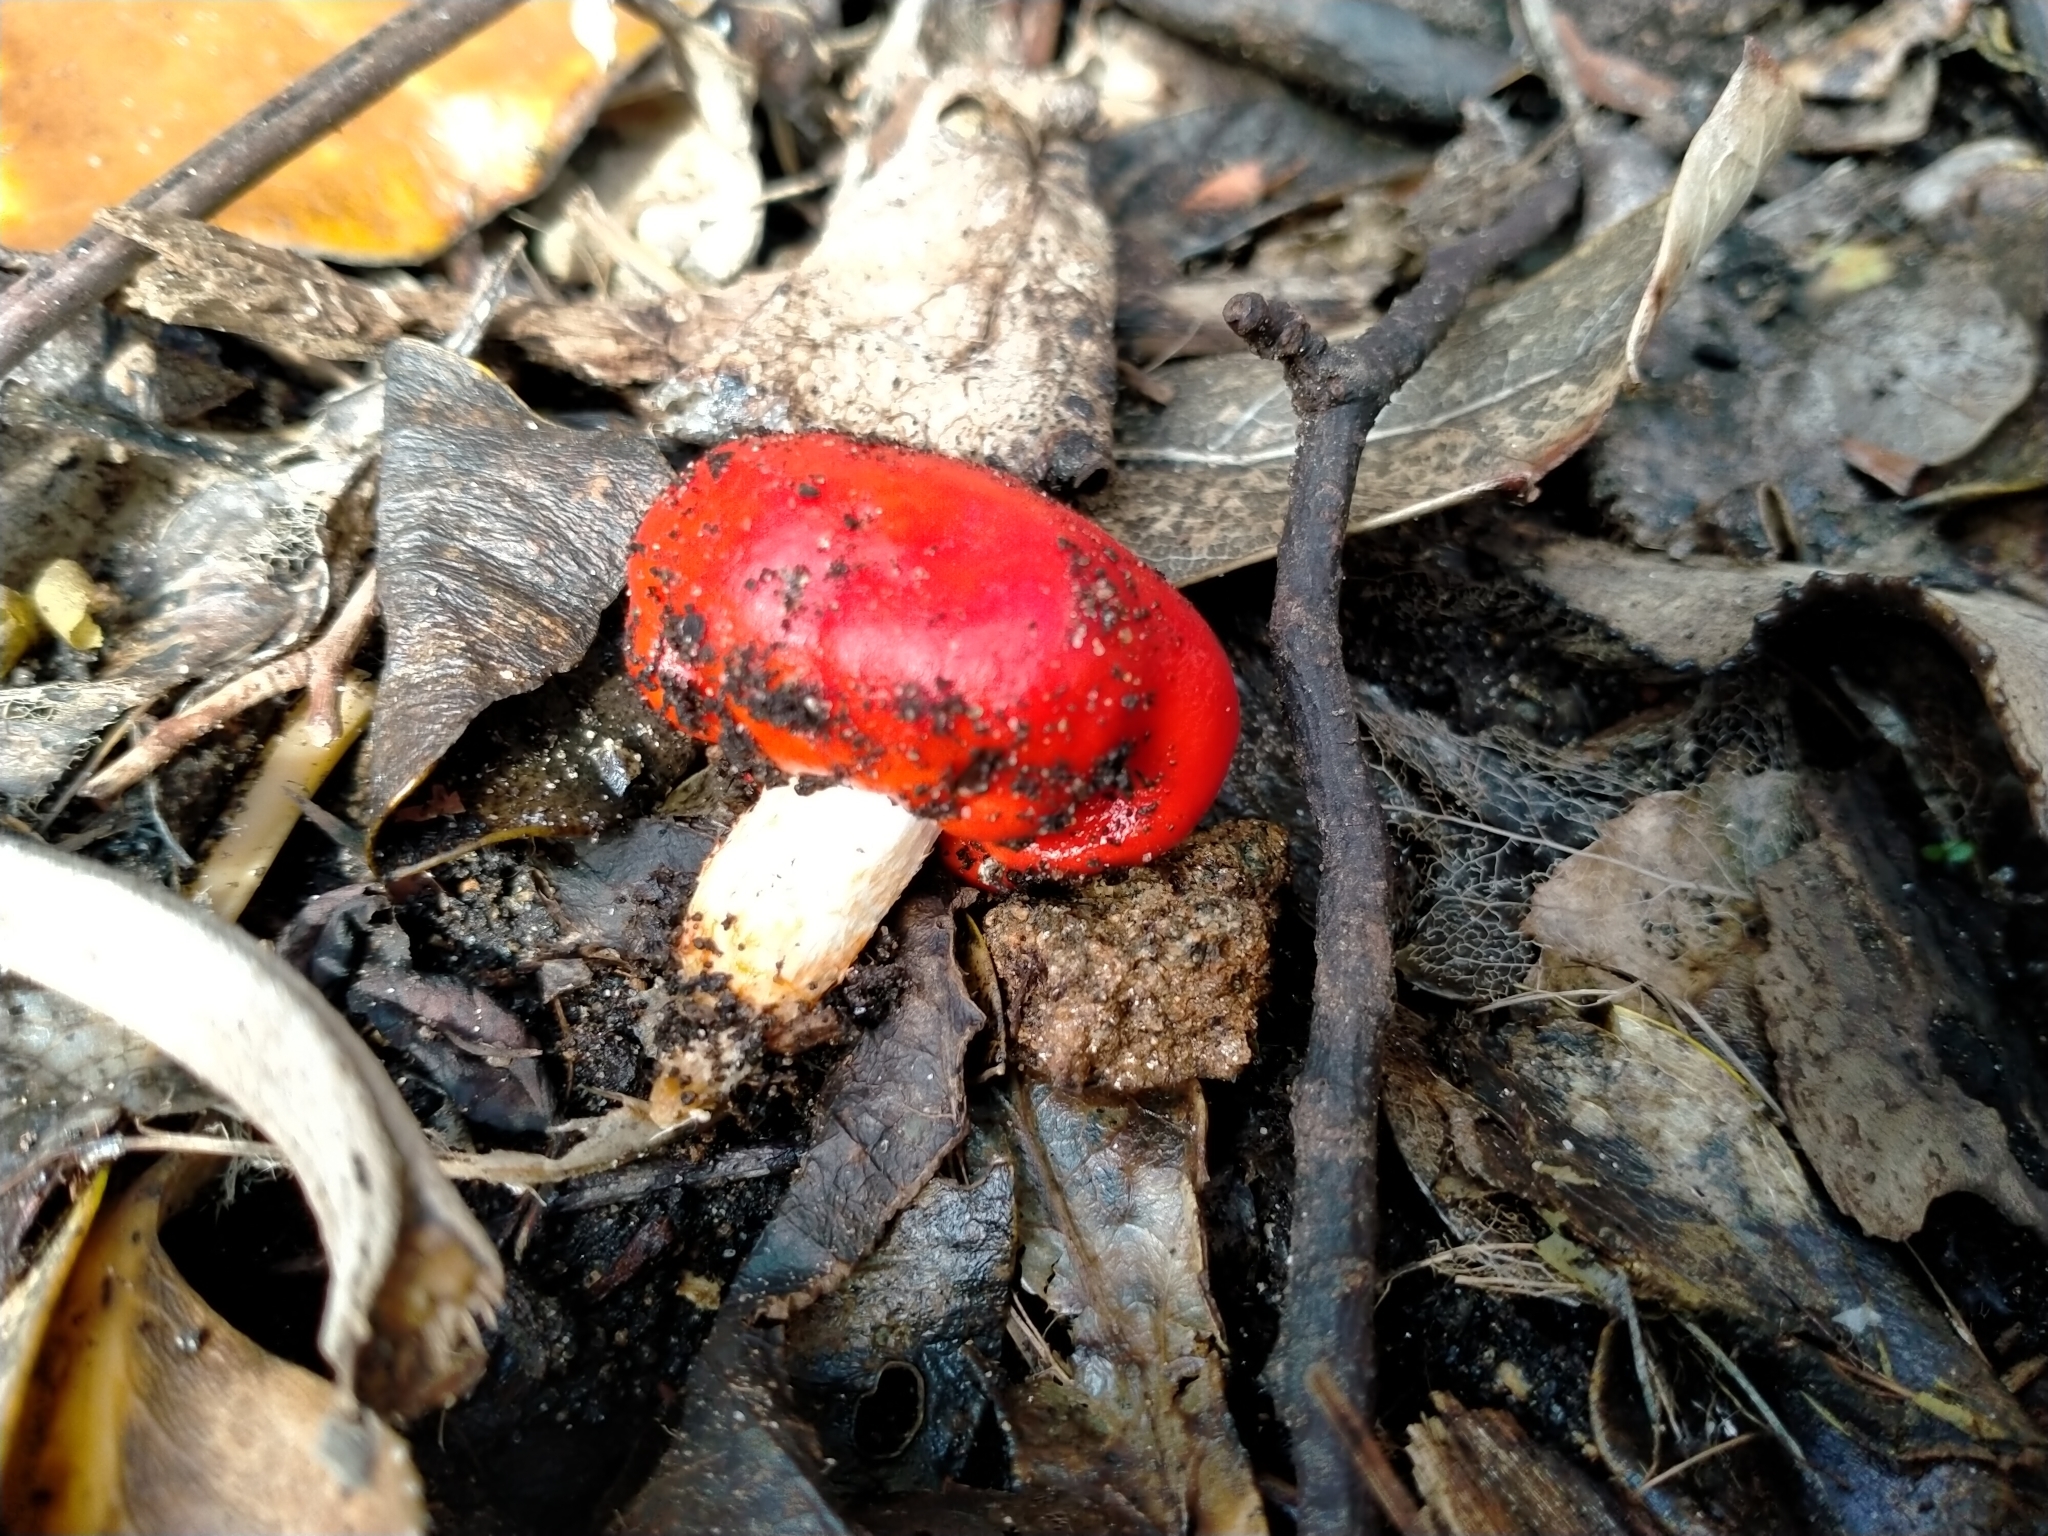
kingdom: Fungi
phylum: Basidiomycota
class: Agaricomycetes
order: Agaricales
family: Strophariaceae
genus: Leratiomyces
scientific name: Leratiomyces erythrocephalus
